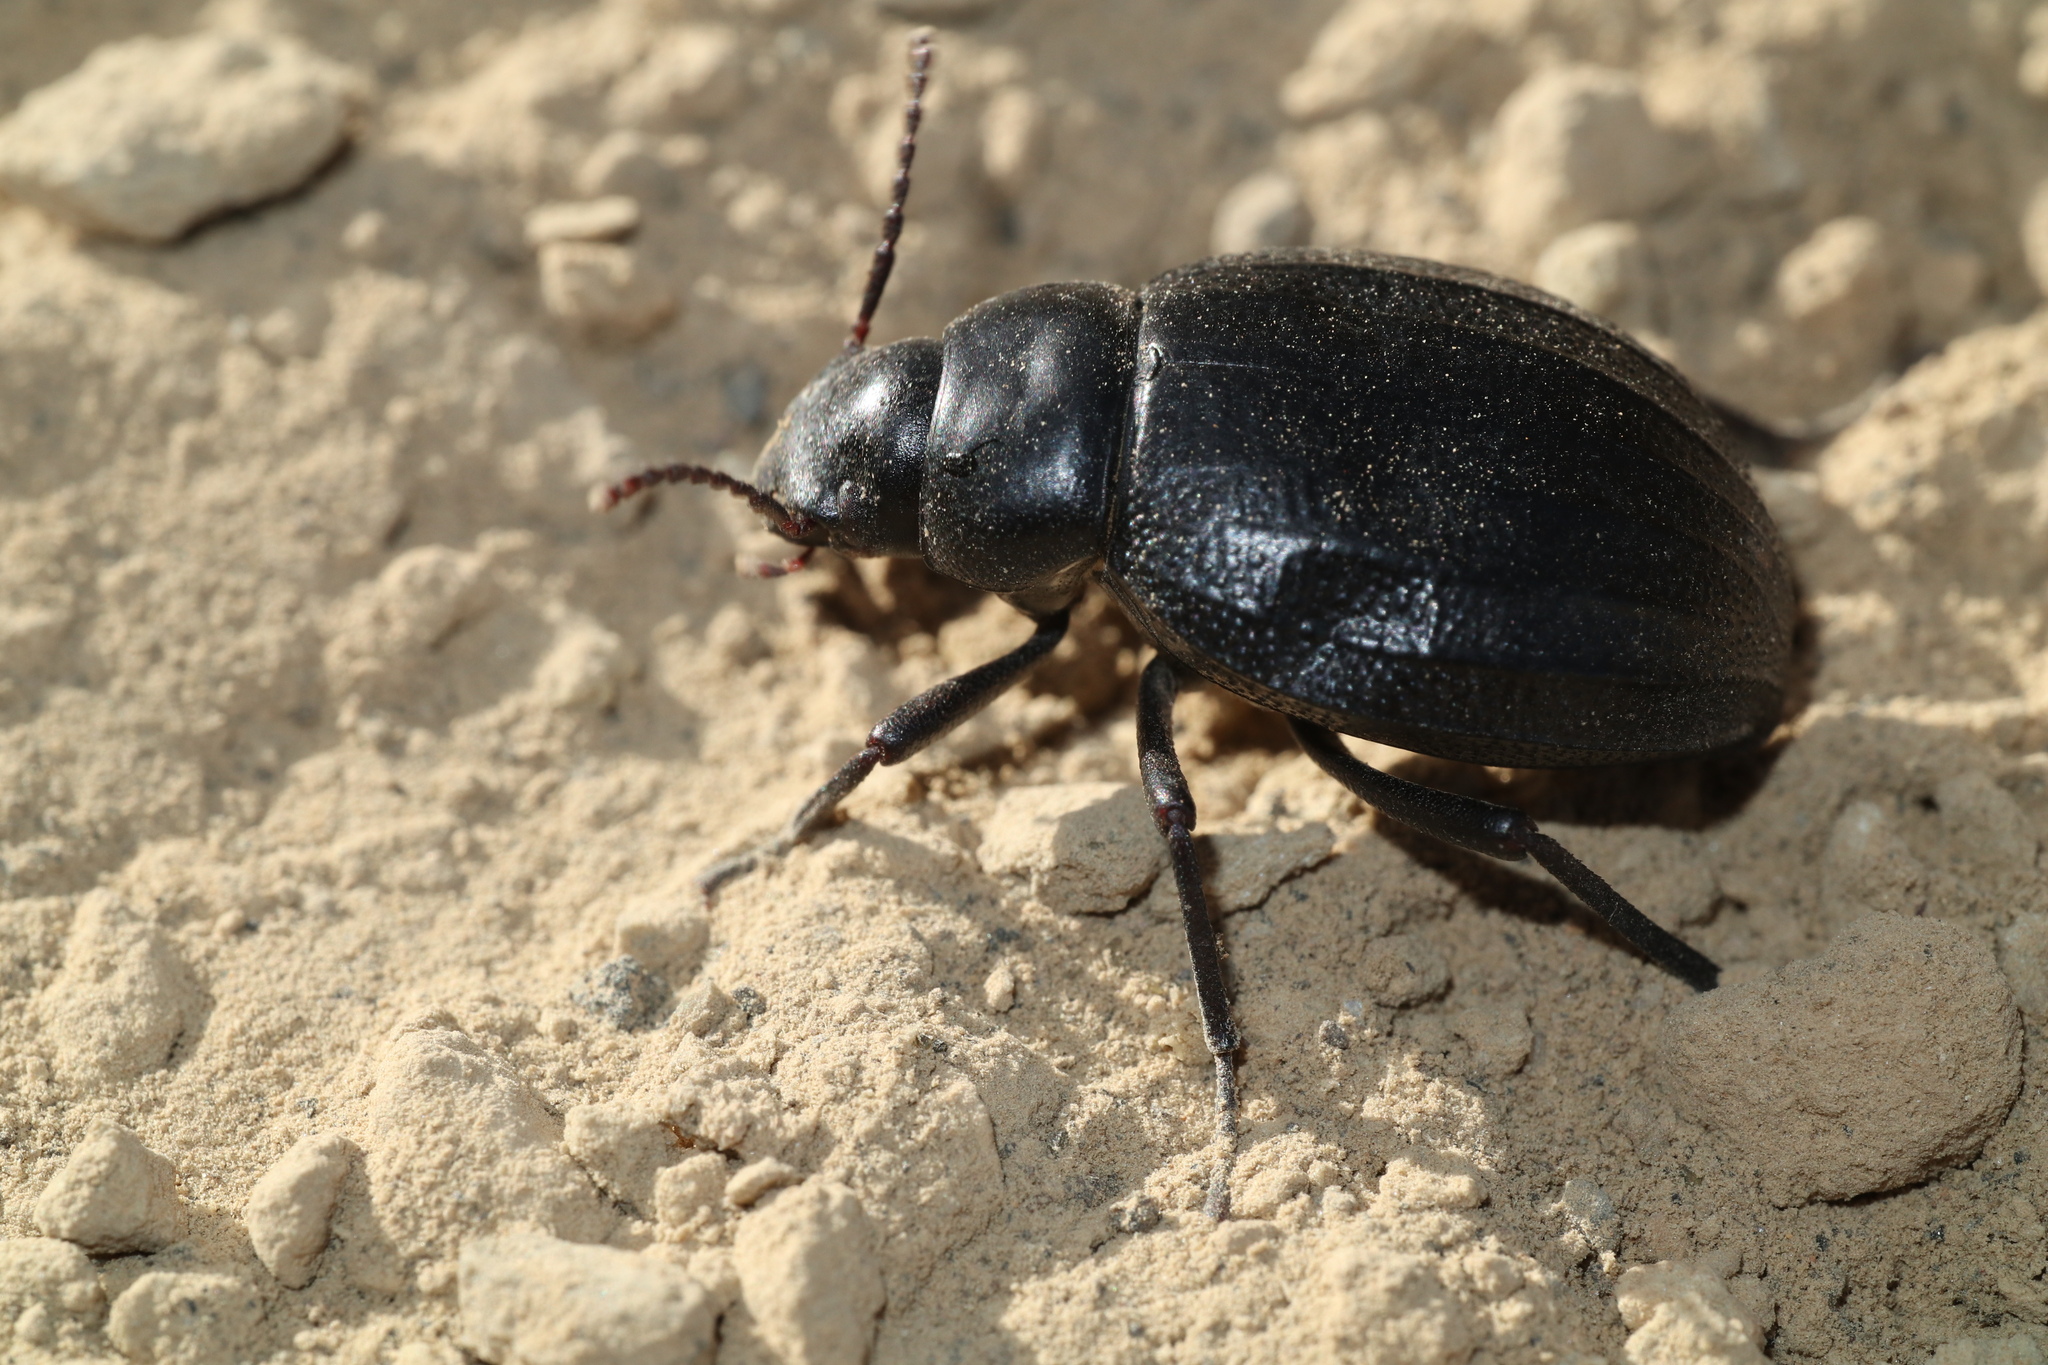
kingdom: Animalia
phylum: Arthropoda
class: Insecta
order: Coleoptera
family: Tenebrionidae
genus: Pimelia
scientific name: Pimelia ascendens
